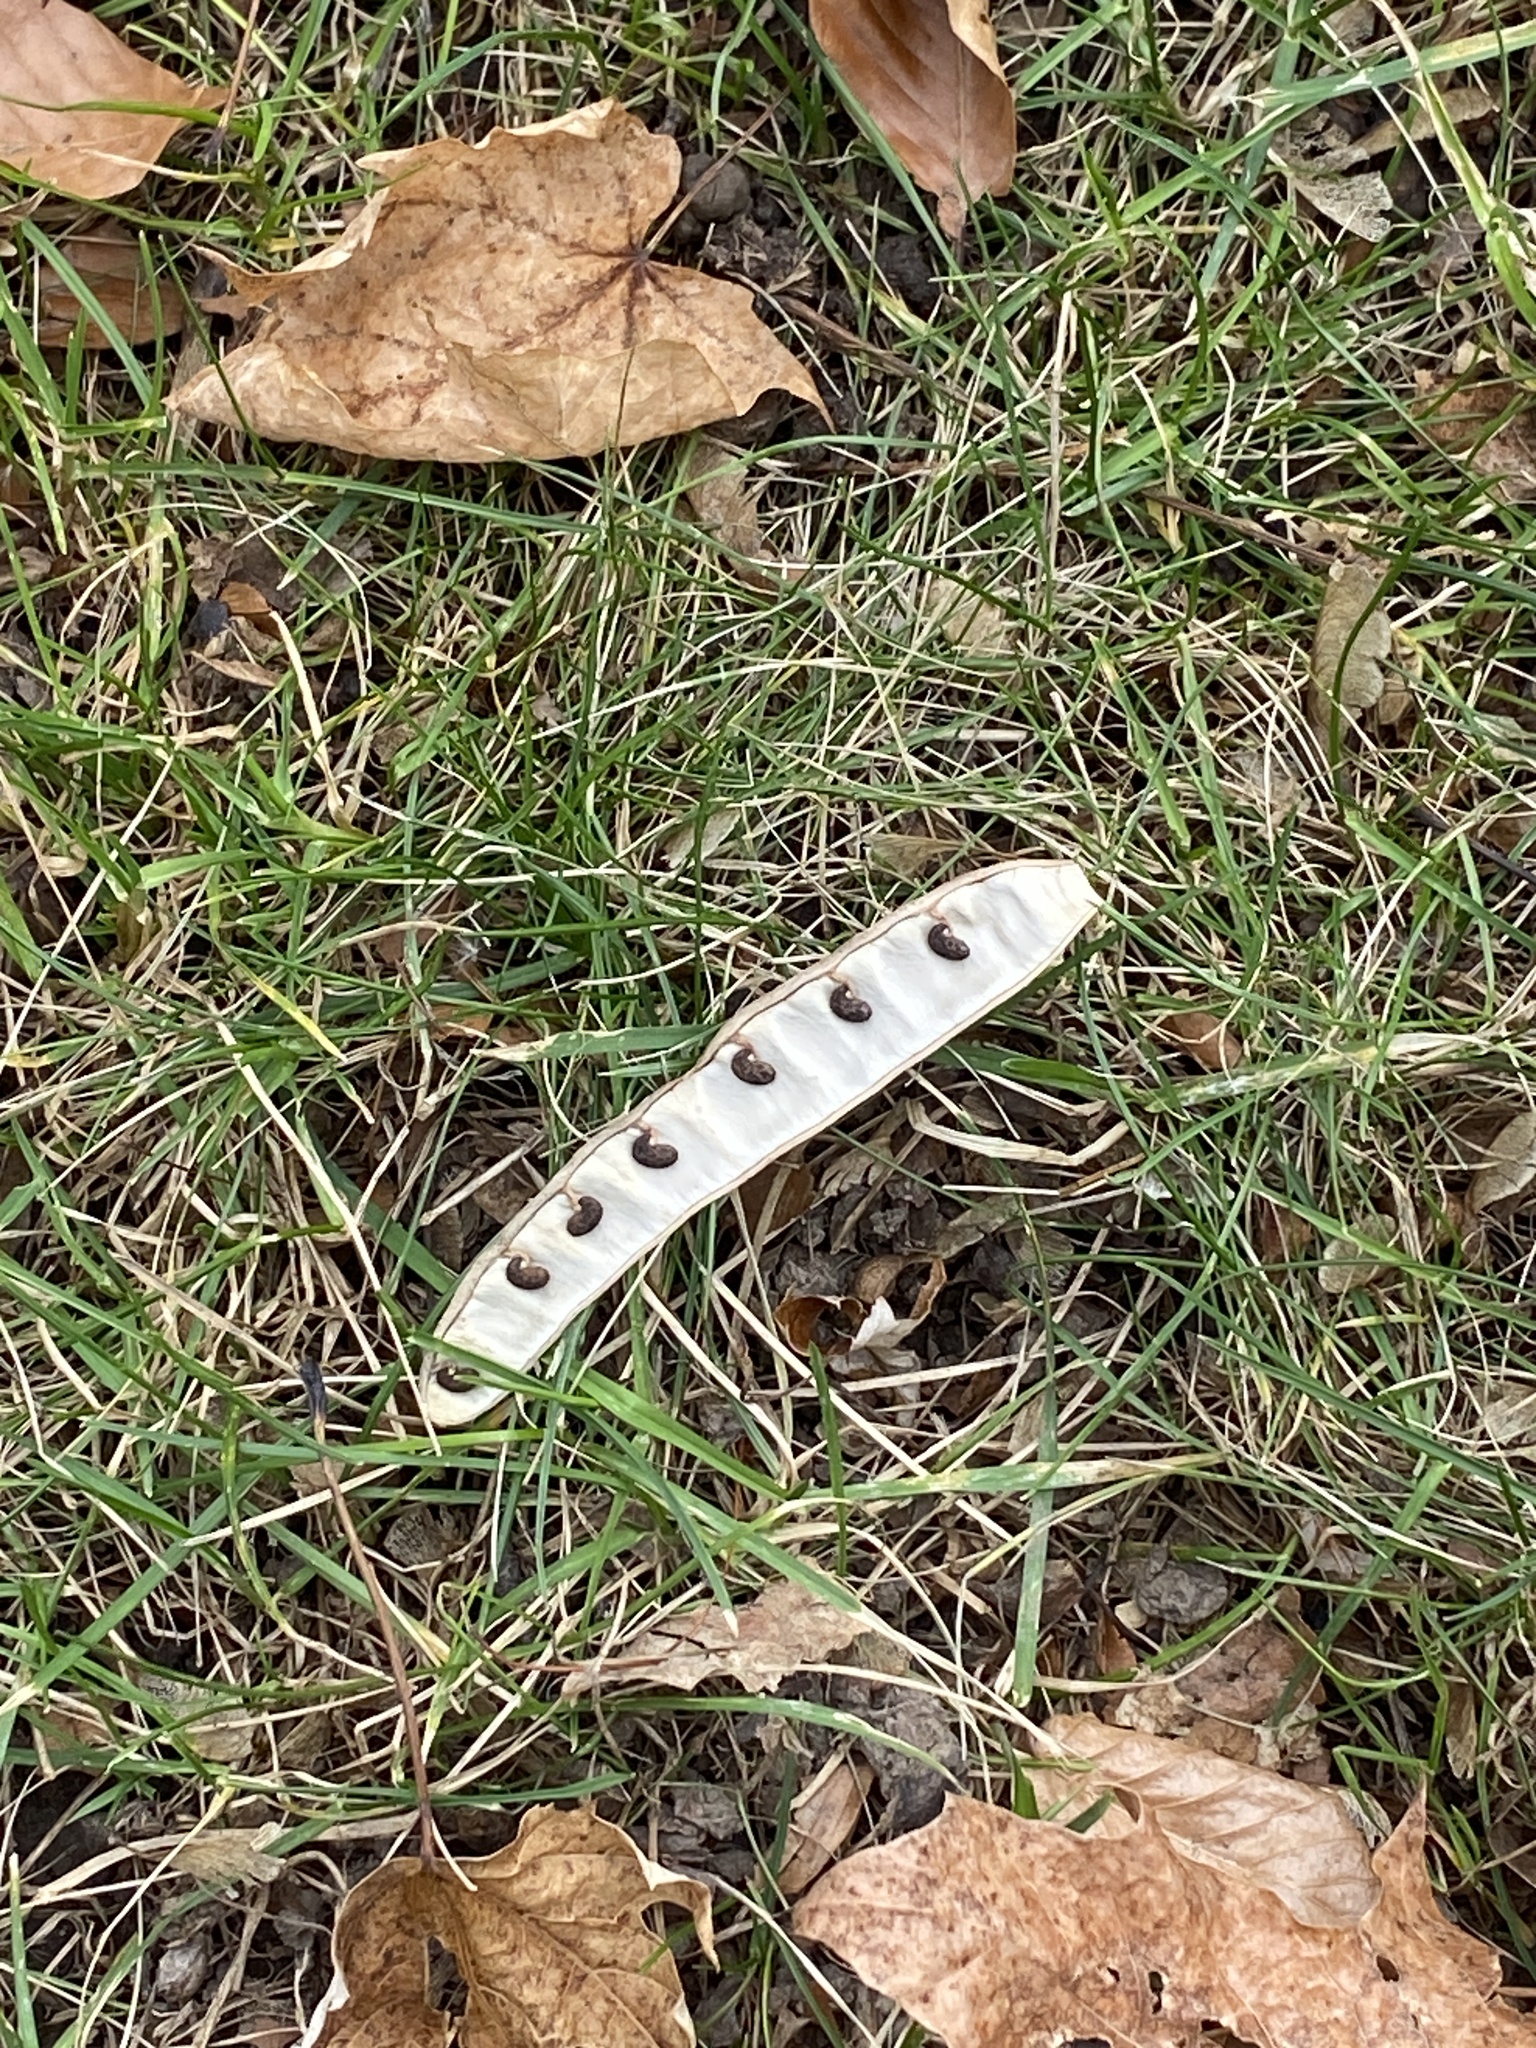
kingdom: Plantae
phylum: Tracheophyta
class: Magnoliopsida
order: Fabales
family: Fabaceae
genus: Robinia
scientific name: Robinia pseudoacacia
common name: Black locust
